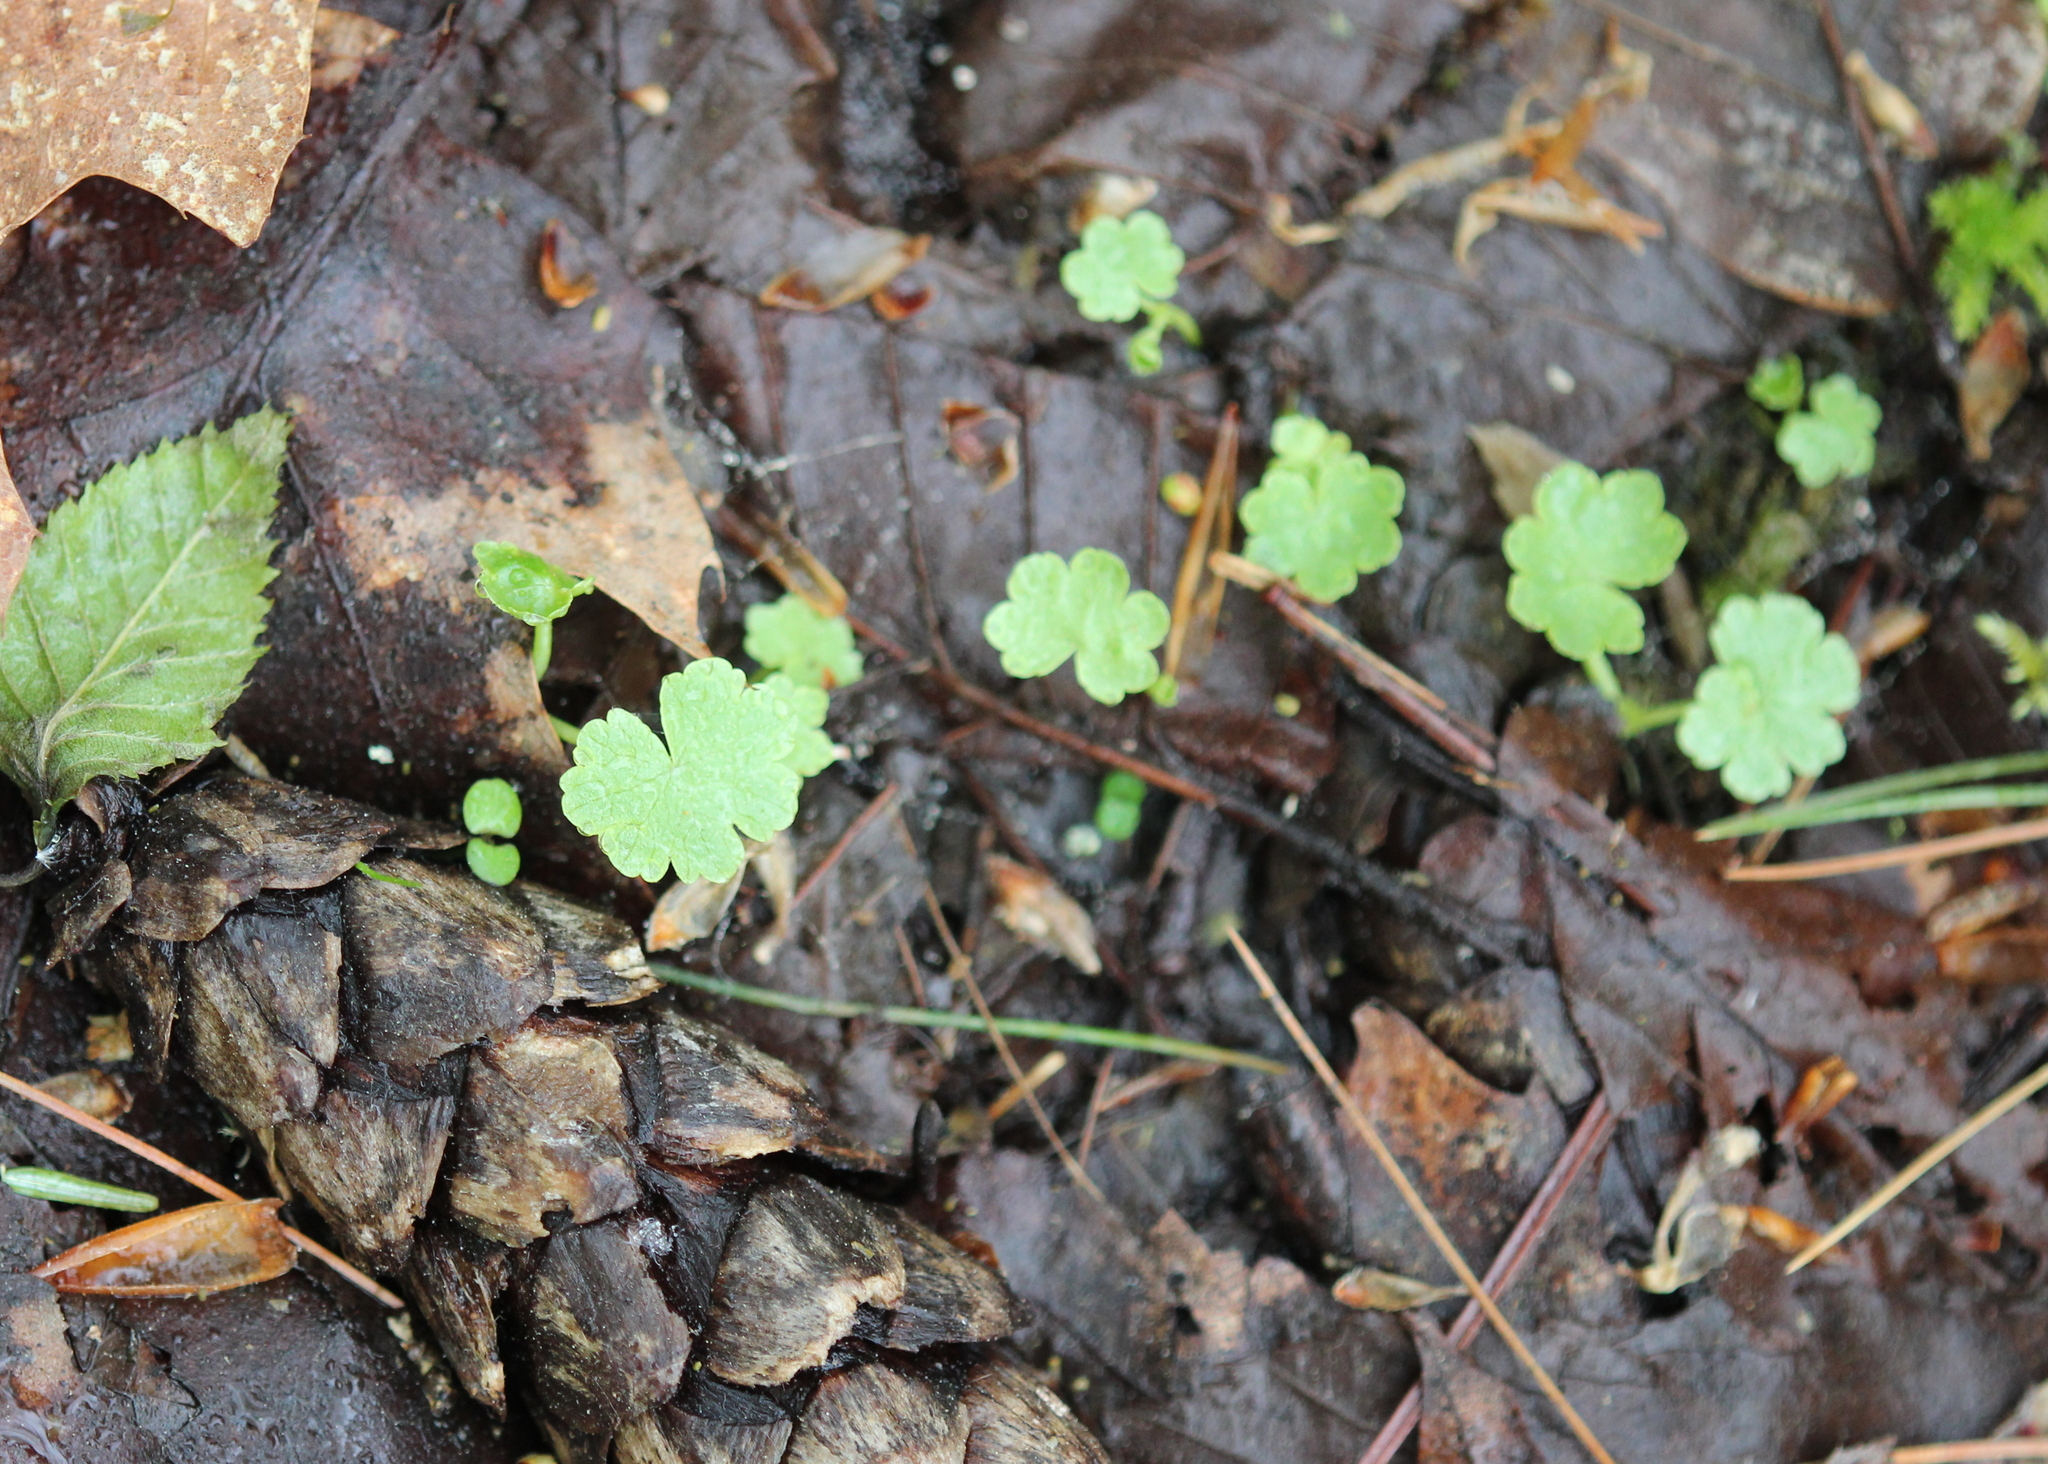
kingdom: Plantae
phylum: Tracheophyta
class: Magnoliopsida
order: Apiales
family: Araliaceae
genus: Hydrocotyle
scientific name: Hydrocotyle americana
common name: American water-pennywort
